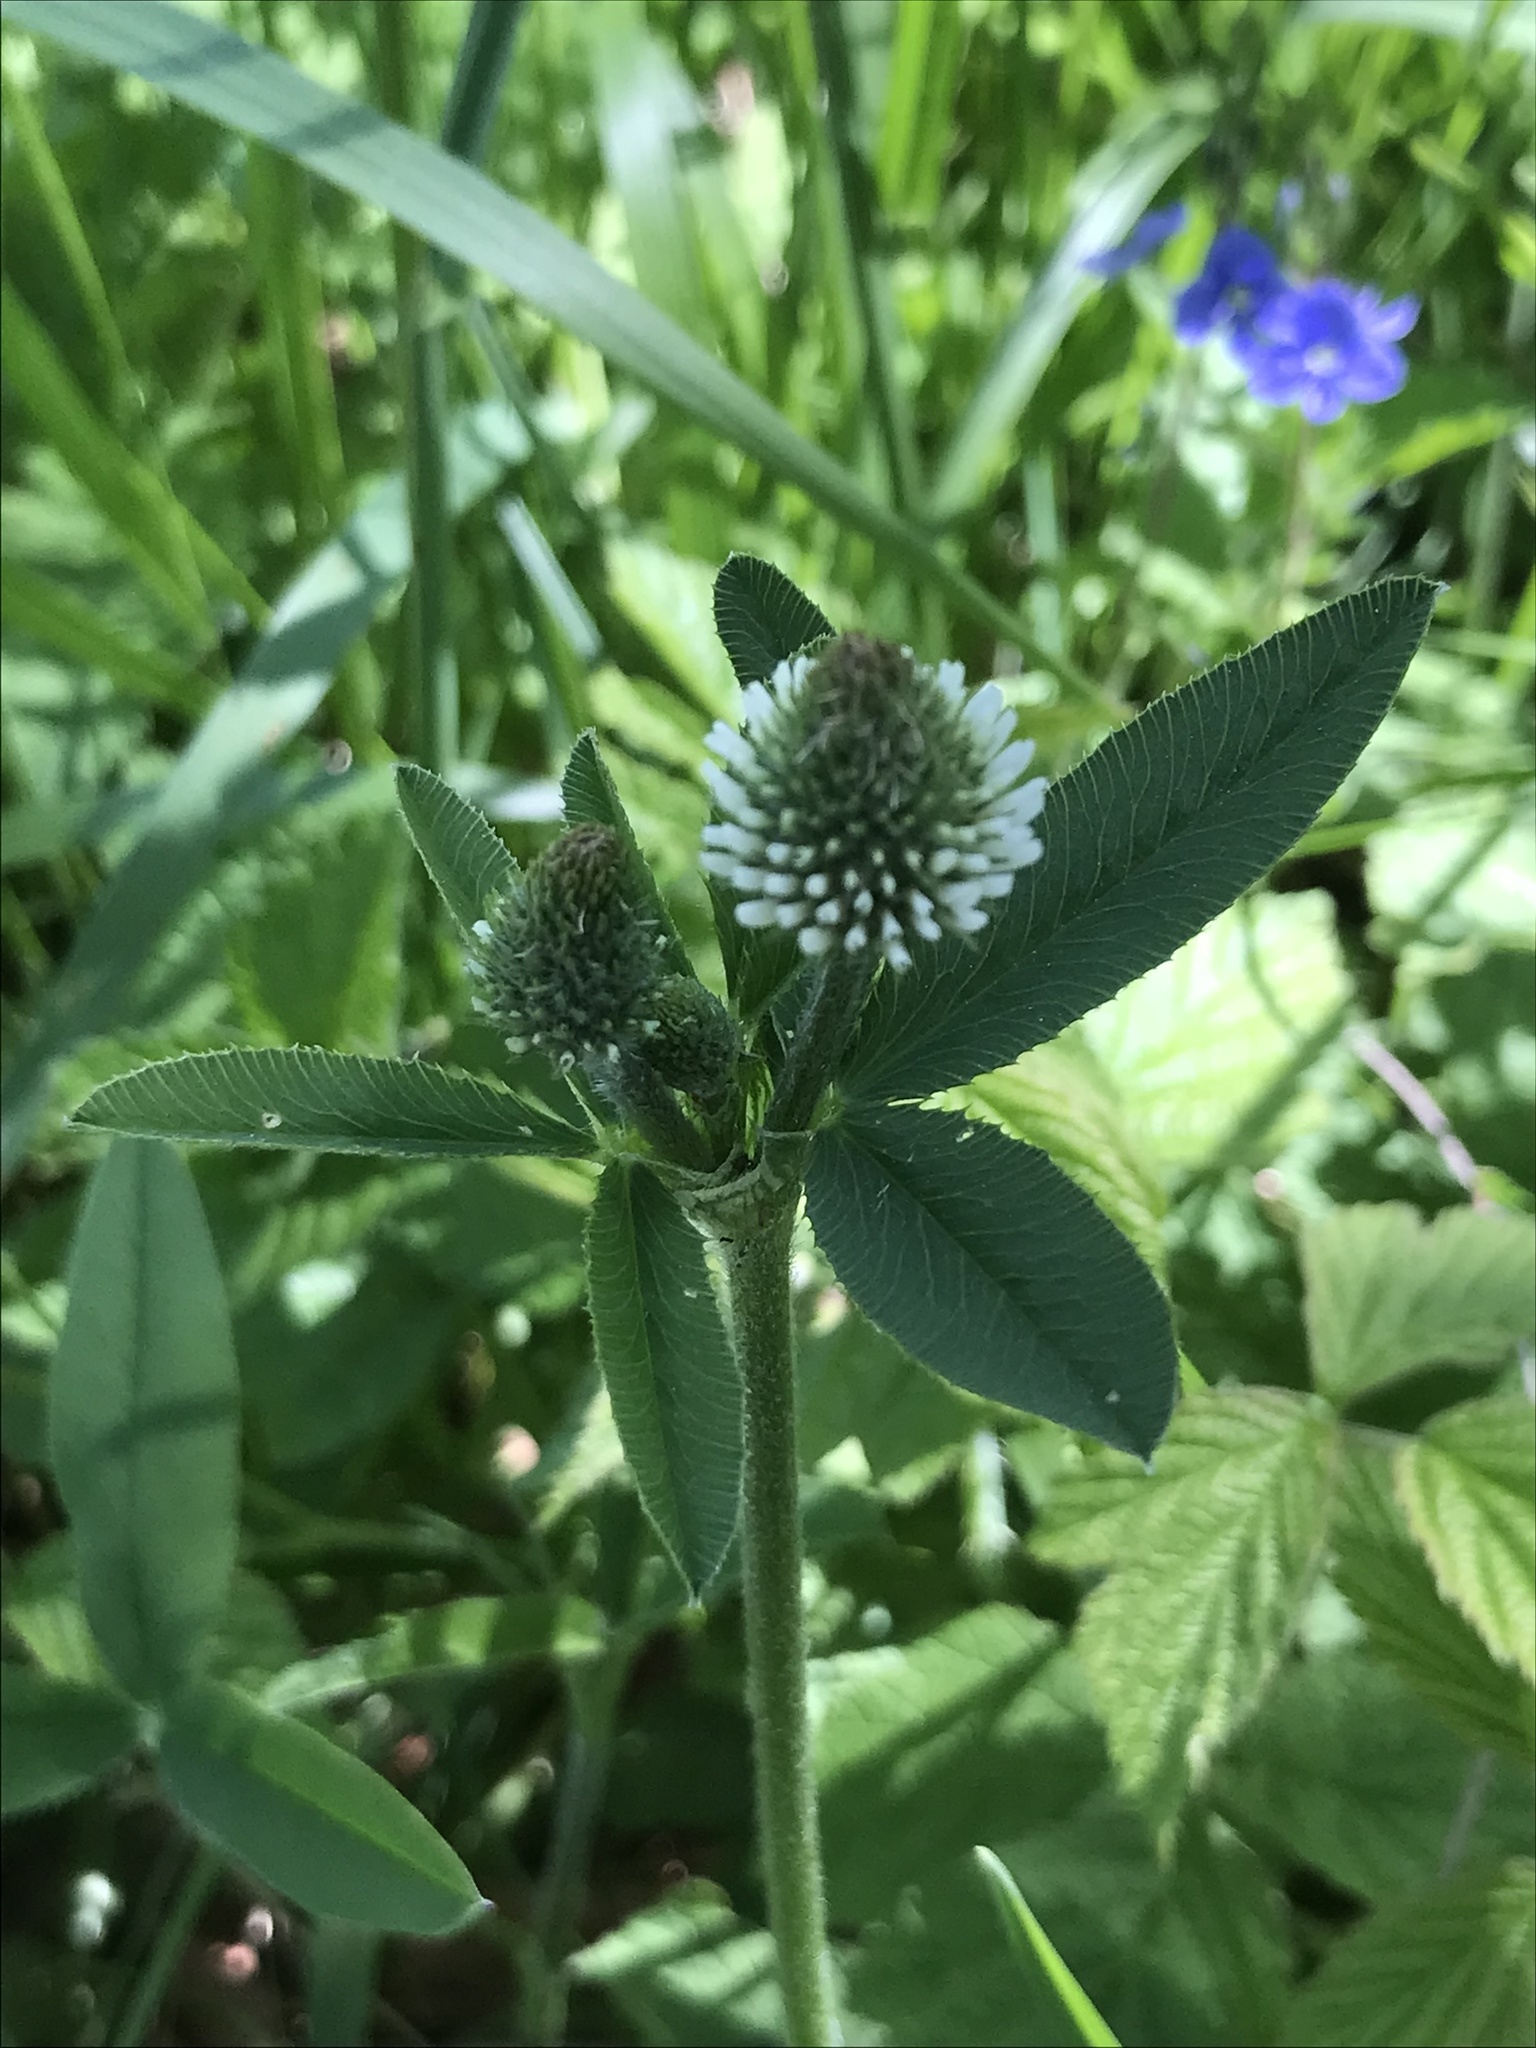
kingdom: Plantae
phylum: Tracheophyta
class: Magnoliopsida
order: Fabales
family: Fabaceae
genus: Trifolium
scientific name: Trifolium montanum
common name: Mountain clover
